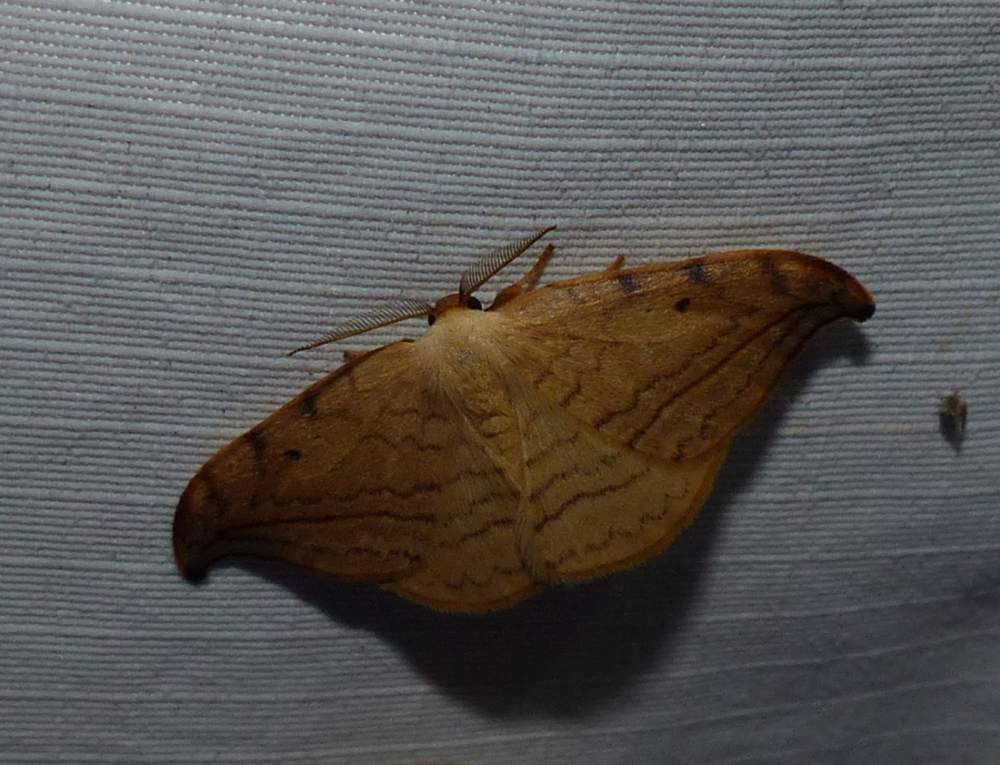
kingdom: Animalia
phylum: Arthropoda
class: Insecta
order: Lepidoptera
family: Drepanidae
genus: Drepana
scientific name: Drepana arcuata
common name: Arched hooktip moth
